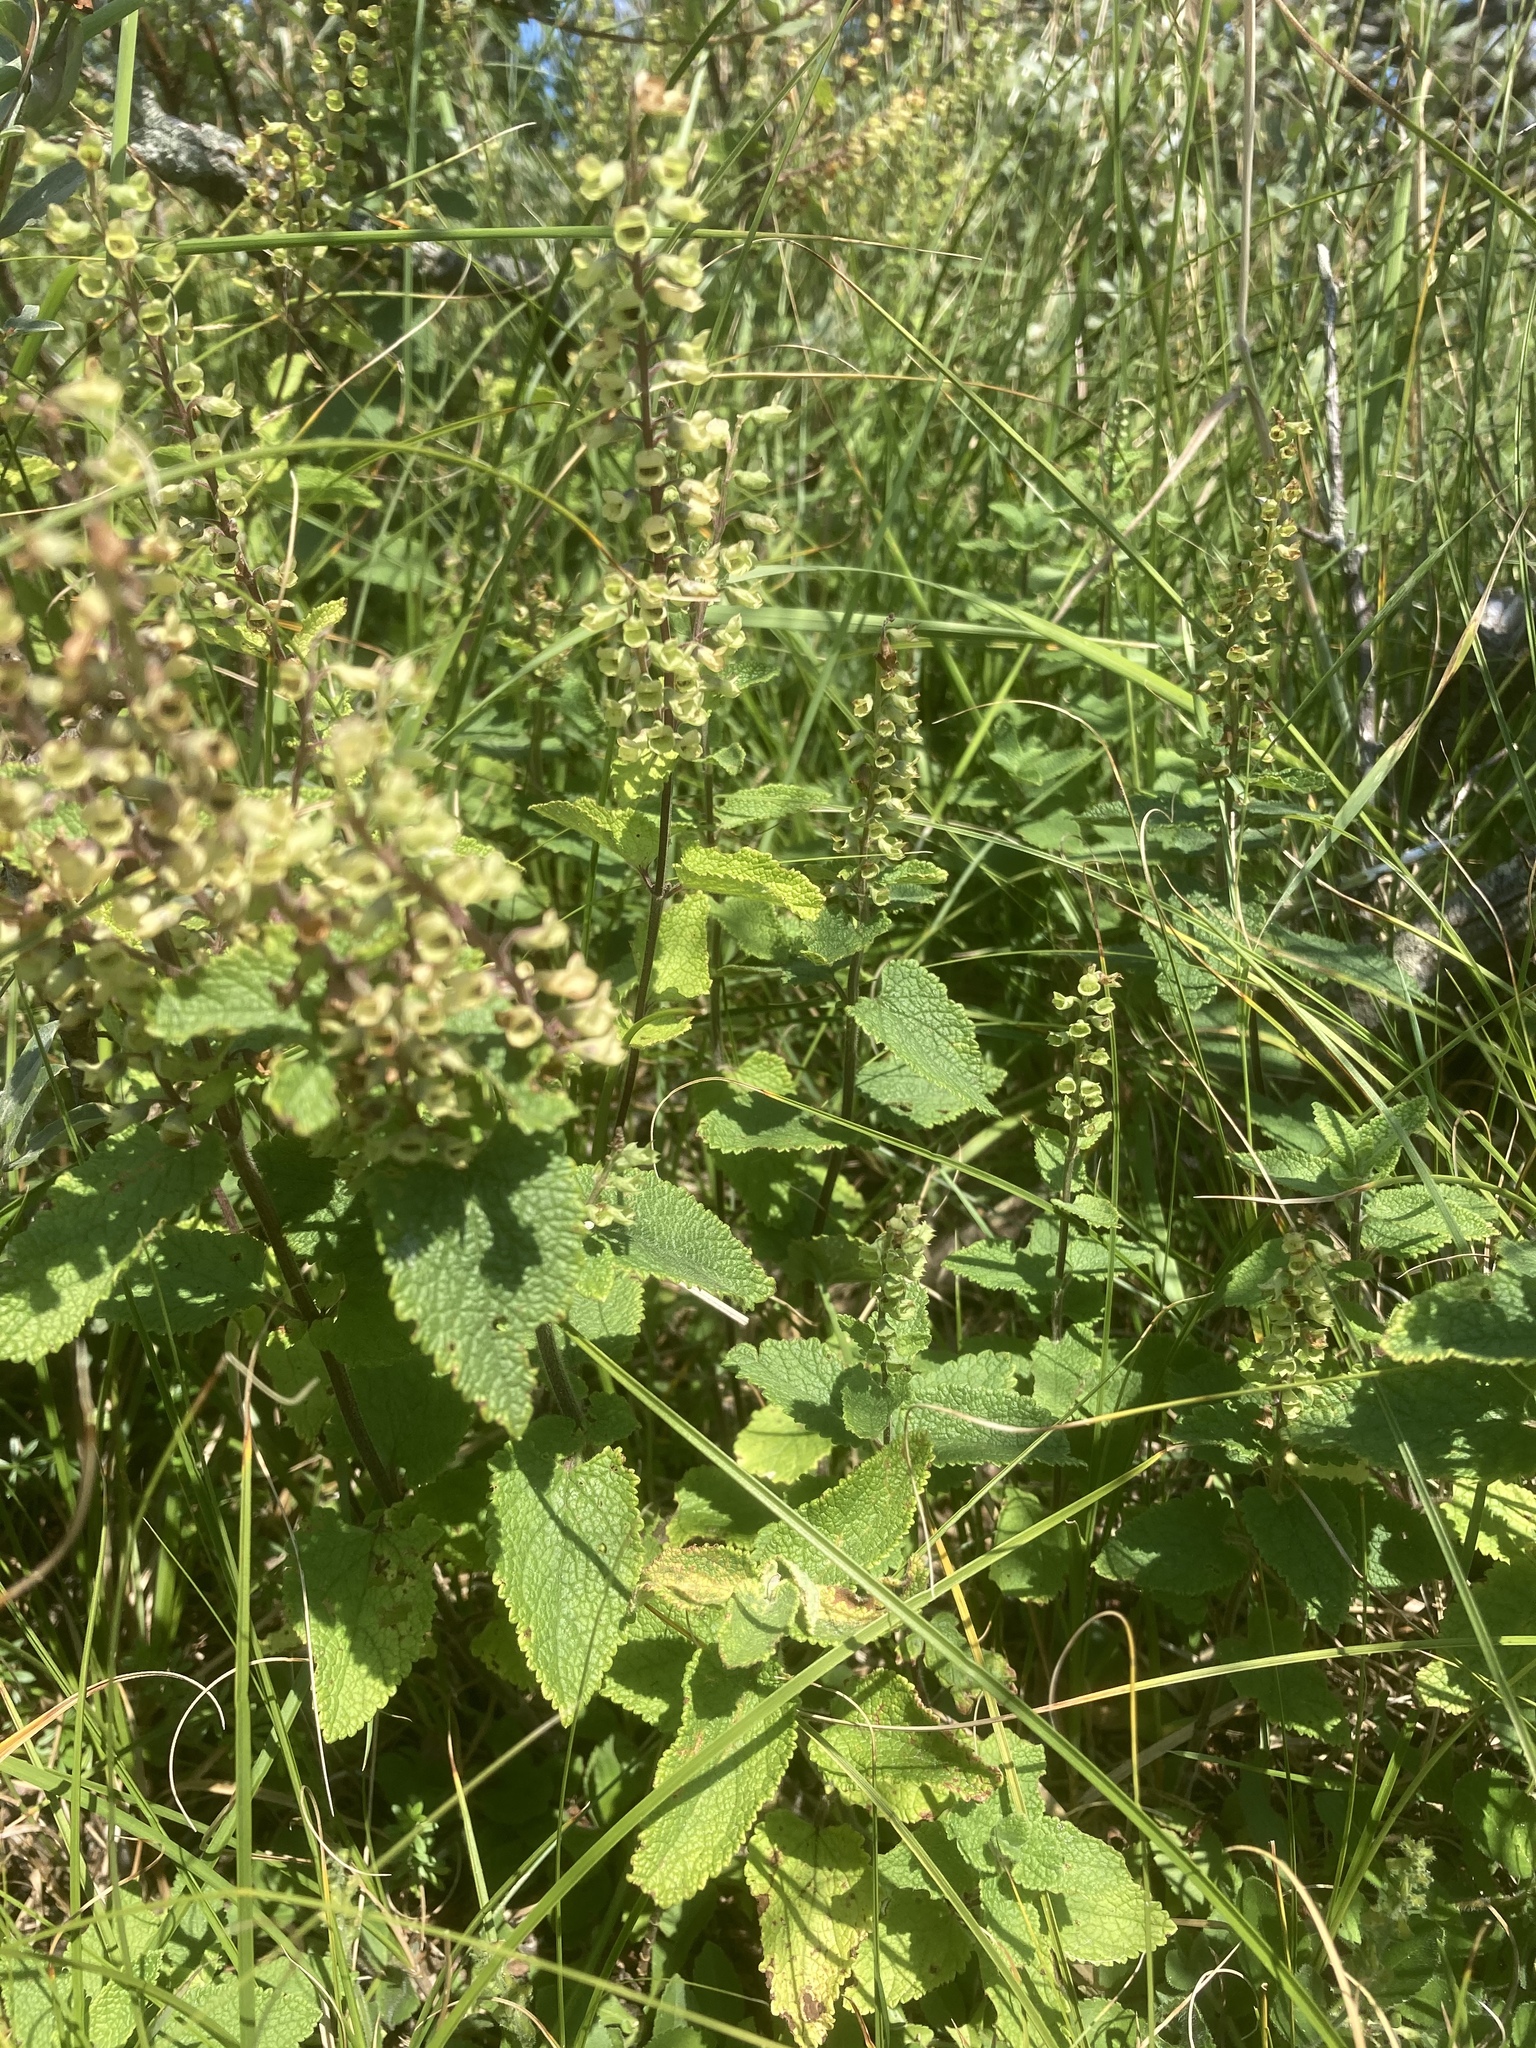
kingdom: Plantae
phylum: Tracheophyta
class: Magnoliopsida
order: Lamiales
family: Lamiaceae
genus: Teucrium
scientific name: Teucrium scorodonia
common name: Woodland germander
